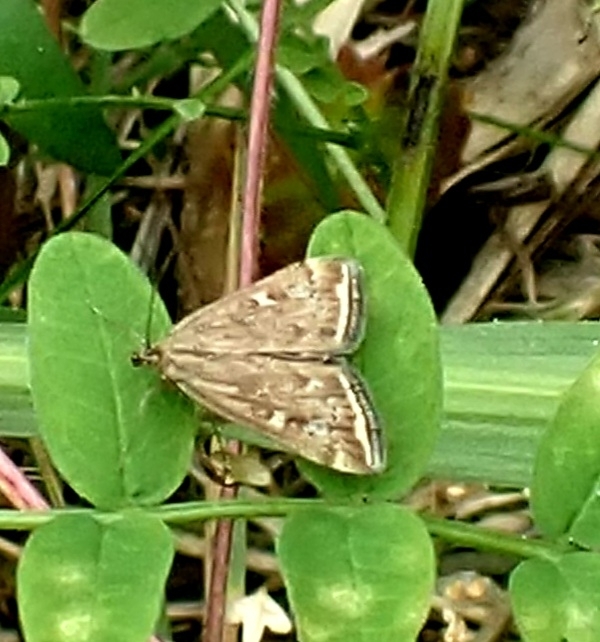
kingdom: Animalia
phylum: Arthropoda
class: Insecta
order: Lepidoptera
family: Crambidae
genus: Loxostege
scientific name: Loxostege sticticalis
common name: Crambid moth
